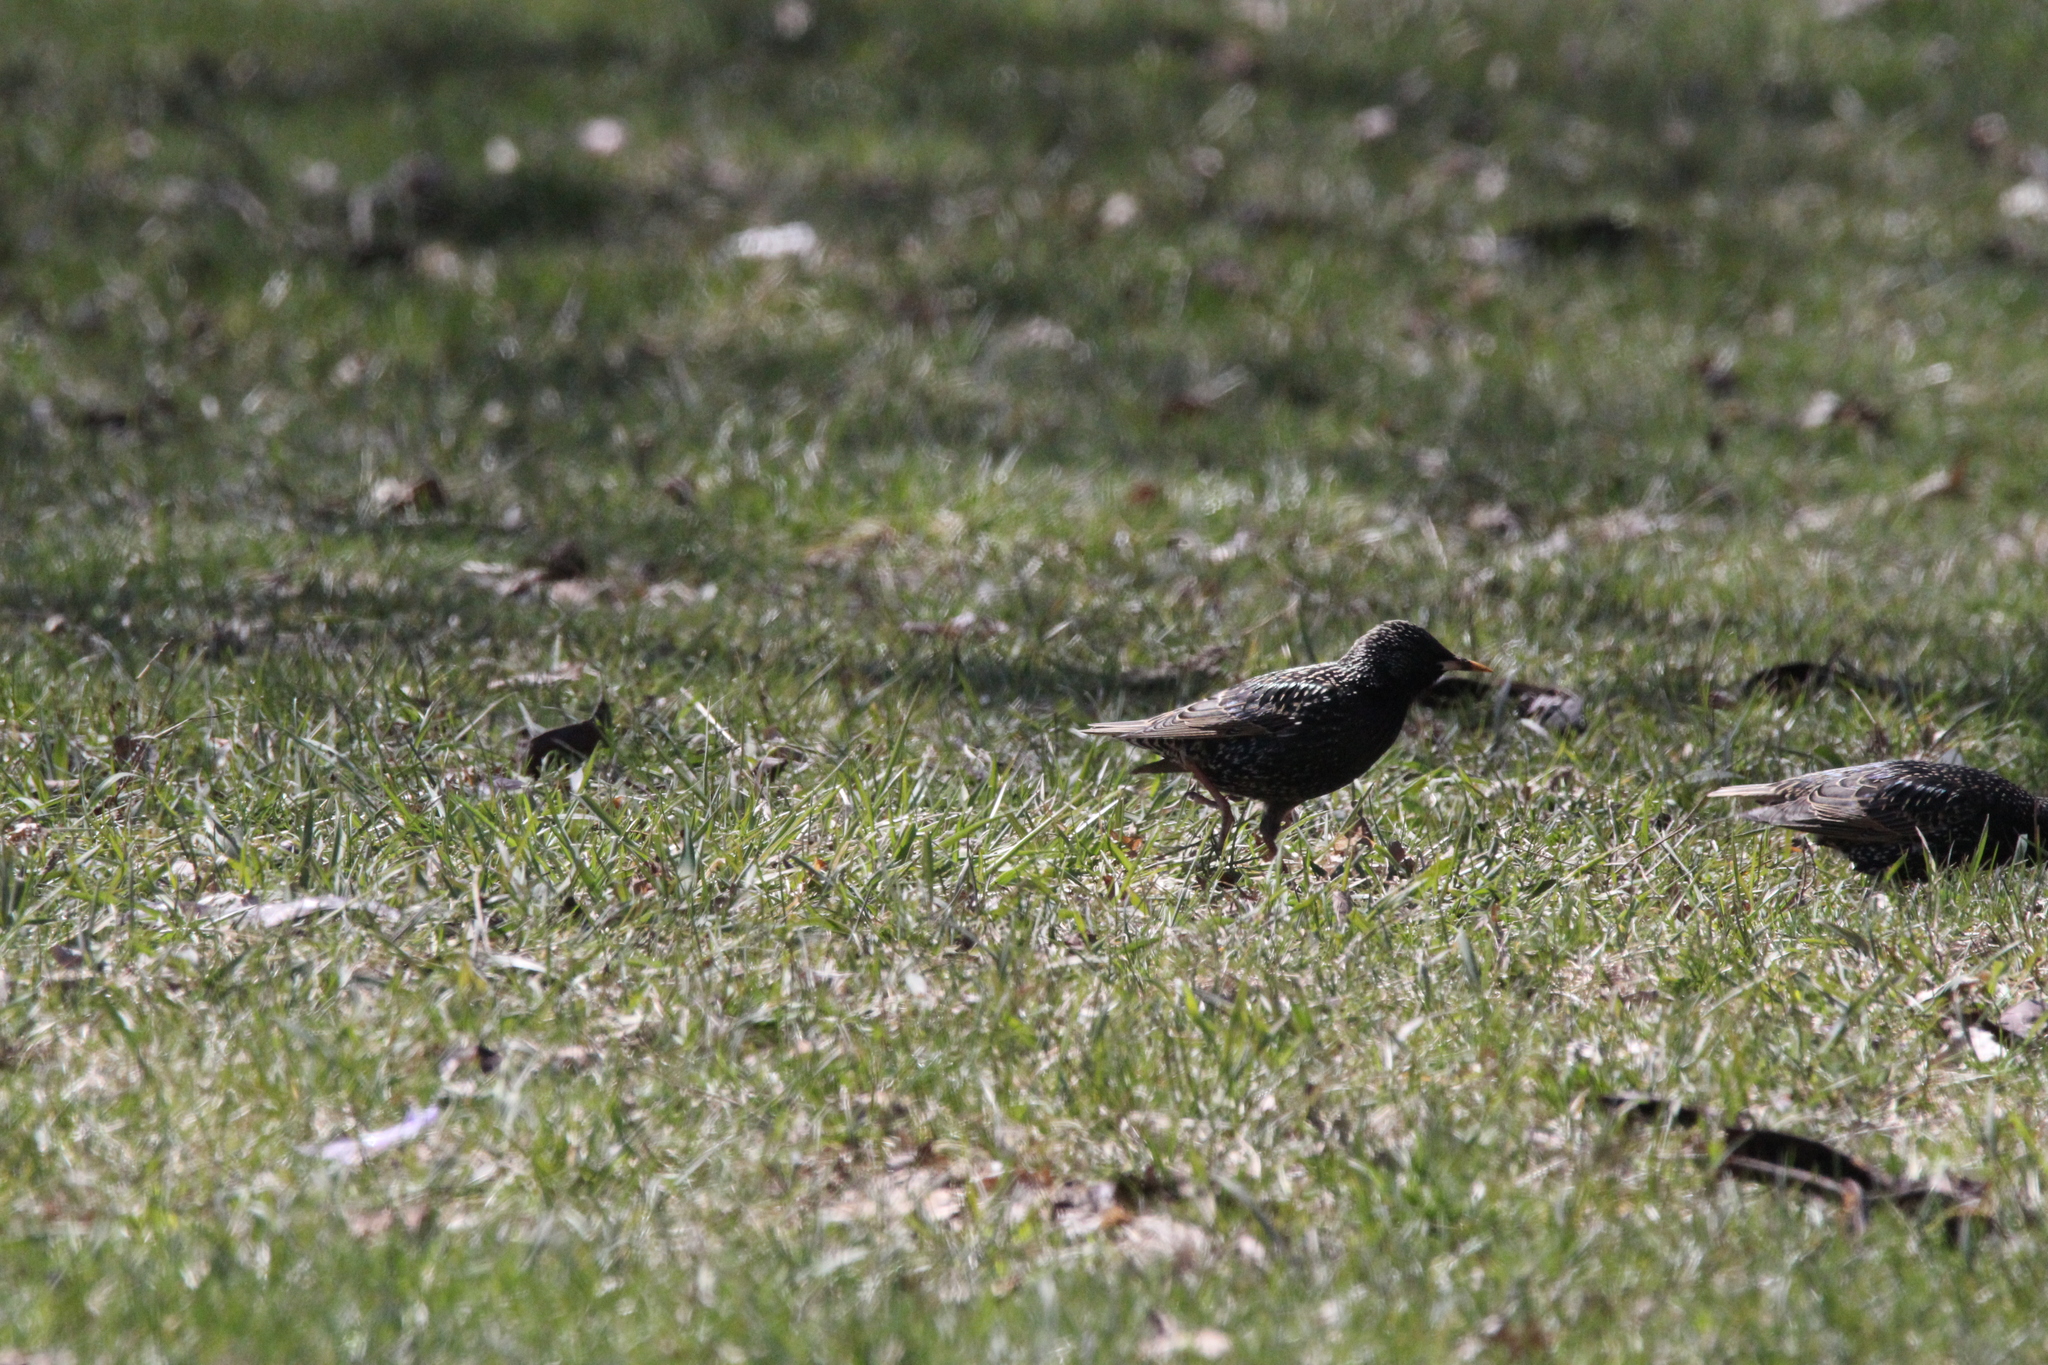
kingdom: Animalia
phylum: Chordata
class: Aves
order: Passeriformes
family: Sturnidae
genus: Sturnus
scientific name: Sturnus vulgaris
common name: Common starling
